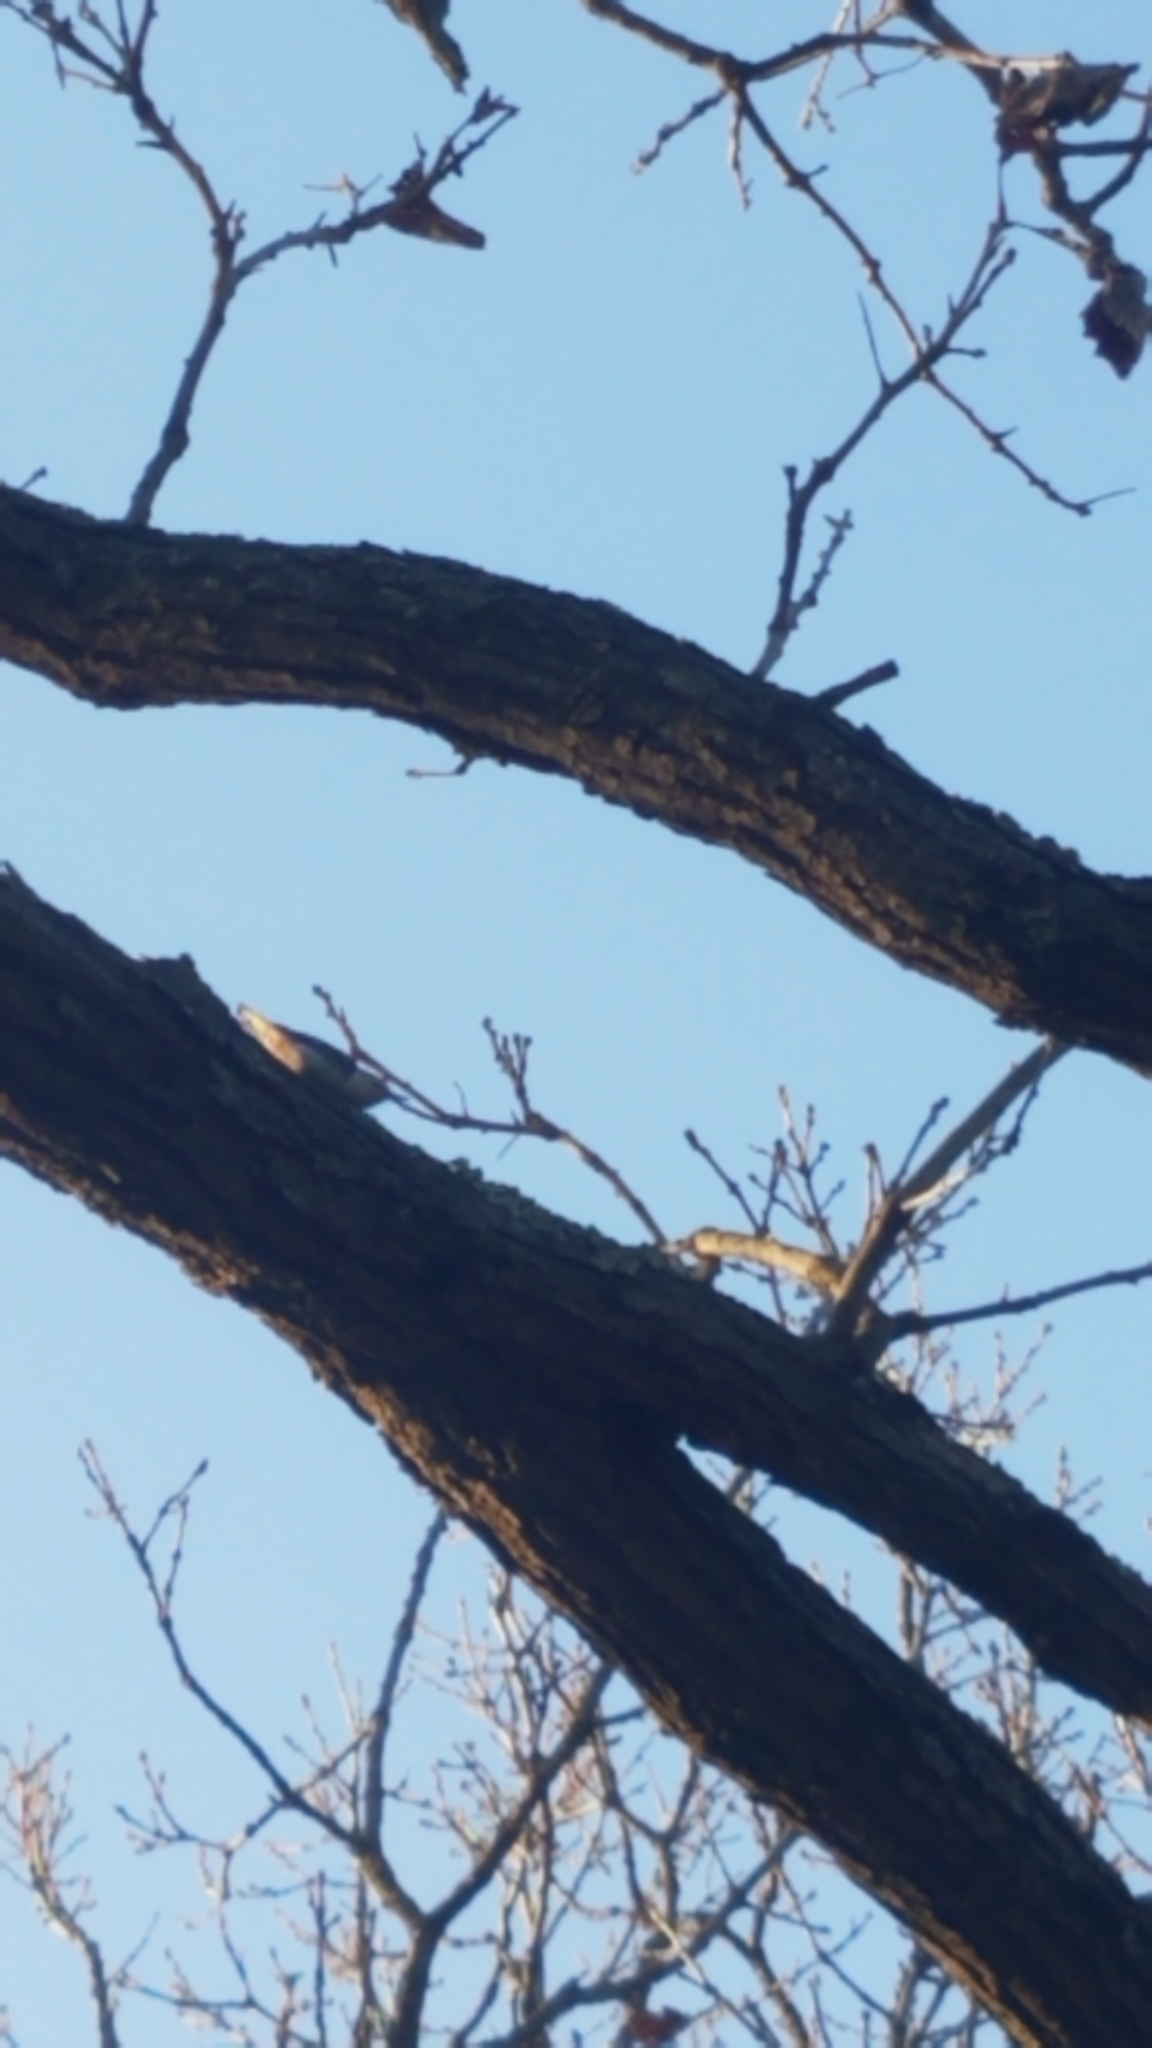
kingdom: Animalia
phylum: Chordata
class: Aves
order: Passeriformes
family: Sittidae
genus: Sitta
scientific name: Sitta carolinensis
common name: White-breasted nuthatch
